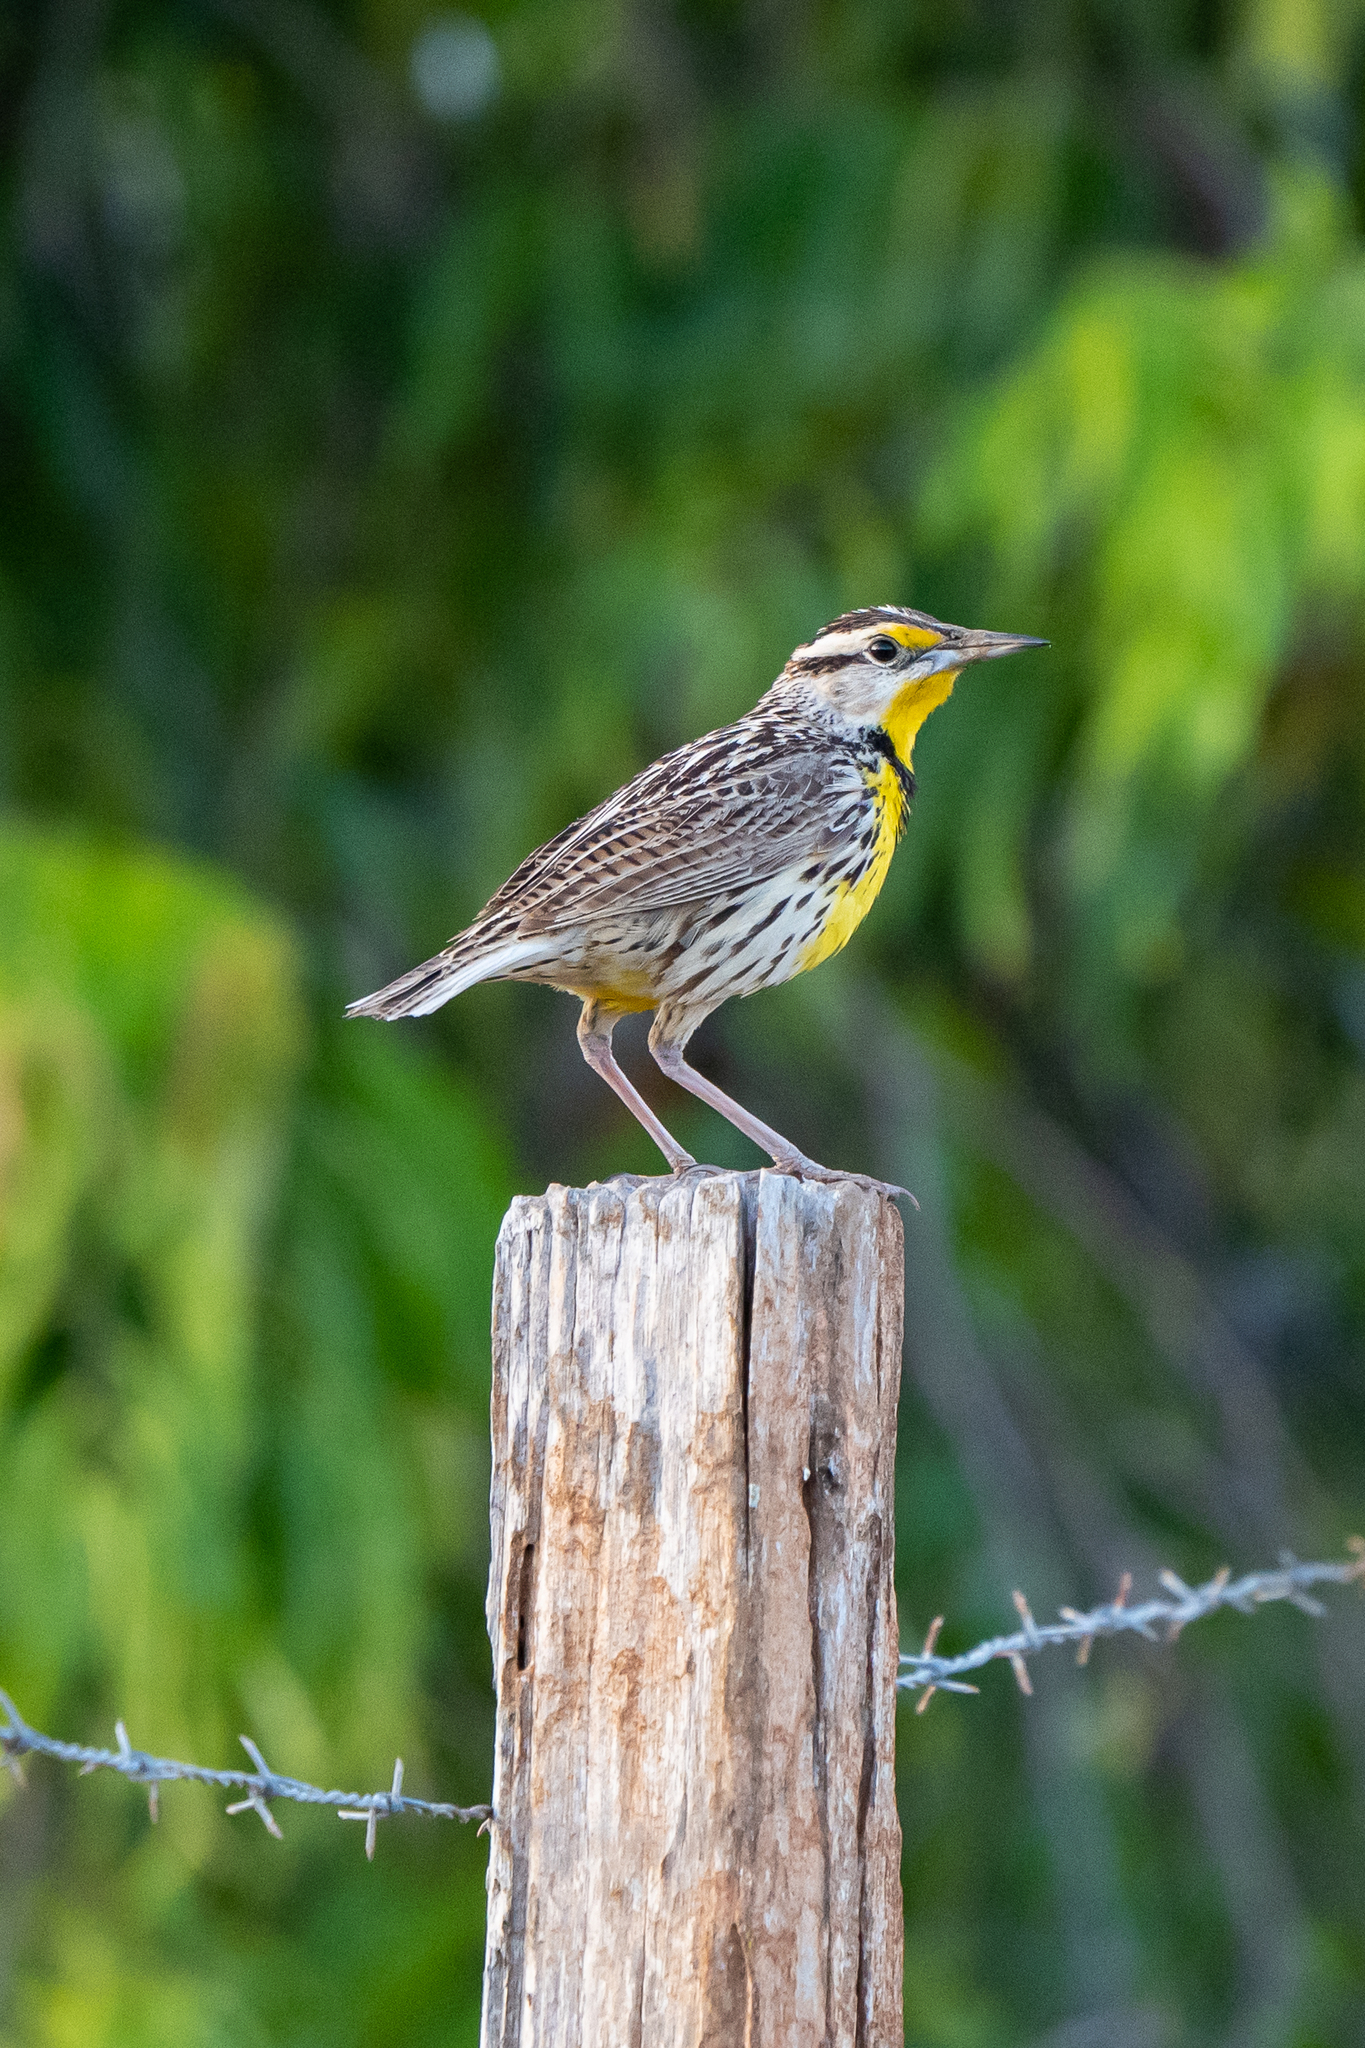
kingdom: Animalia
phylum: Chordata
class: Aves
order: Passeriformes
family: Icteridae
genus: Sturnella
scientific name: Sturnella magna
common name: Eastern meadowlark
